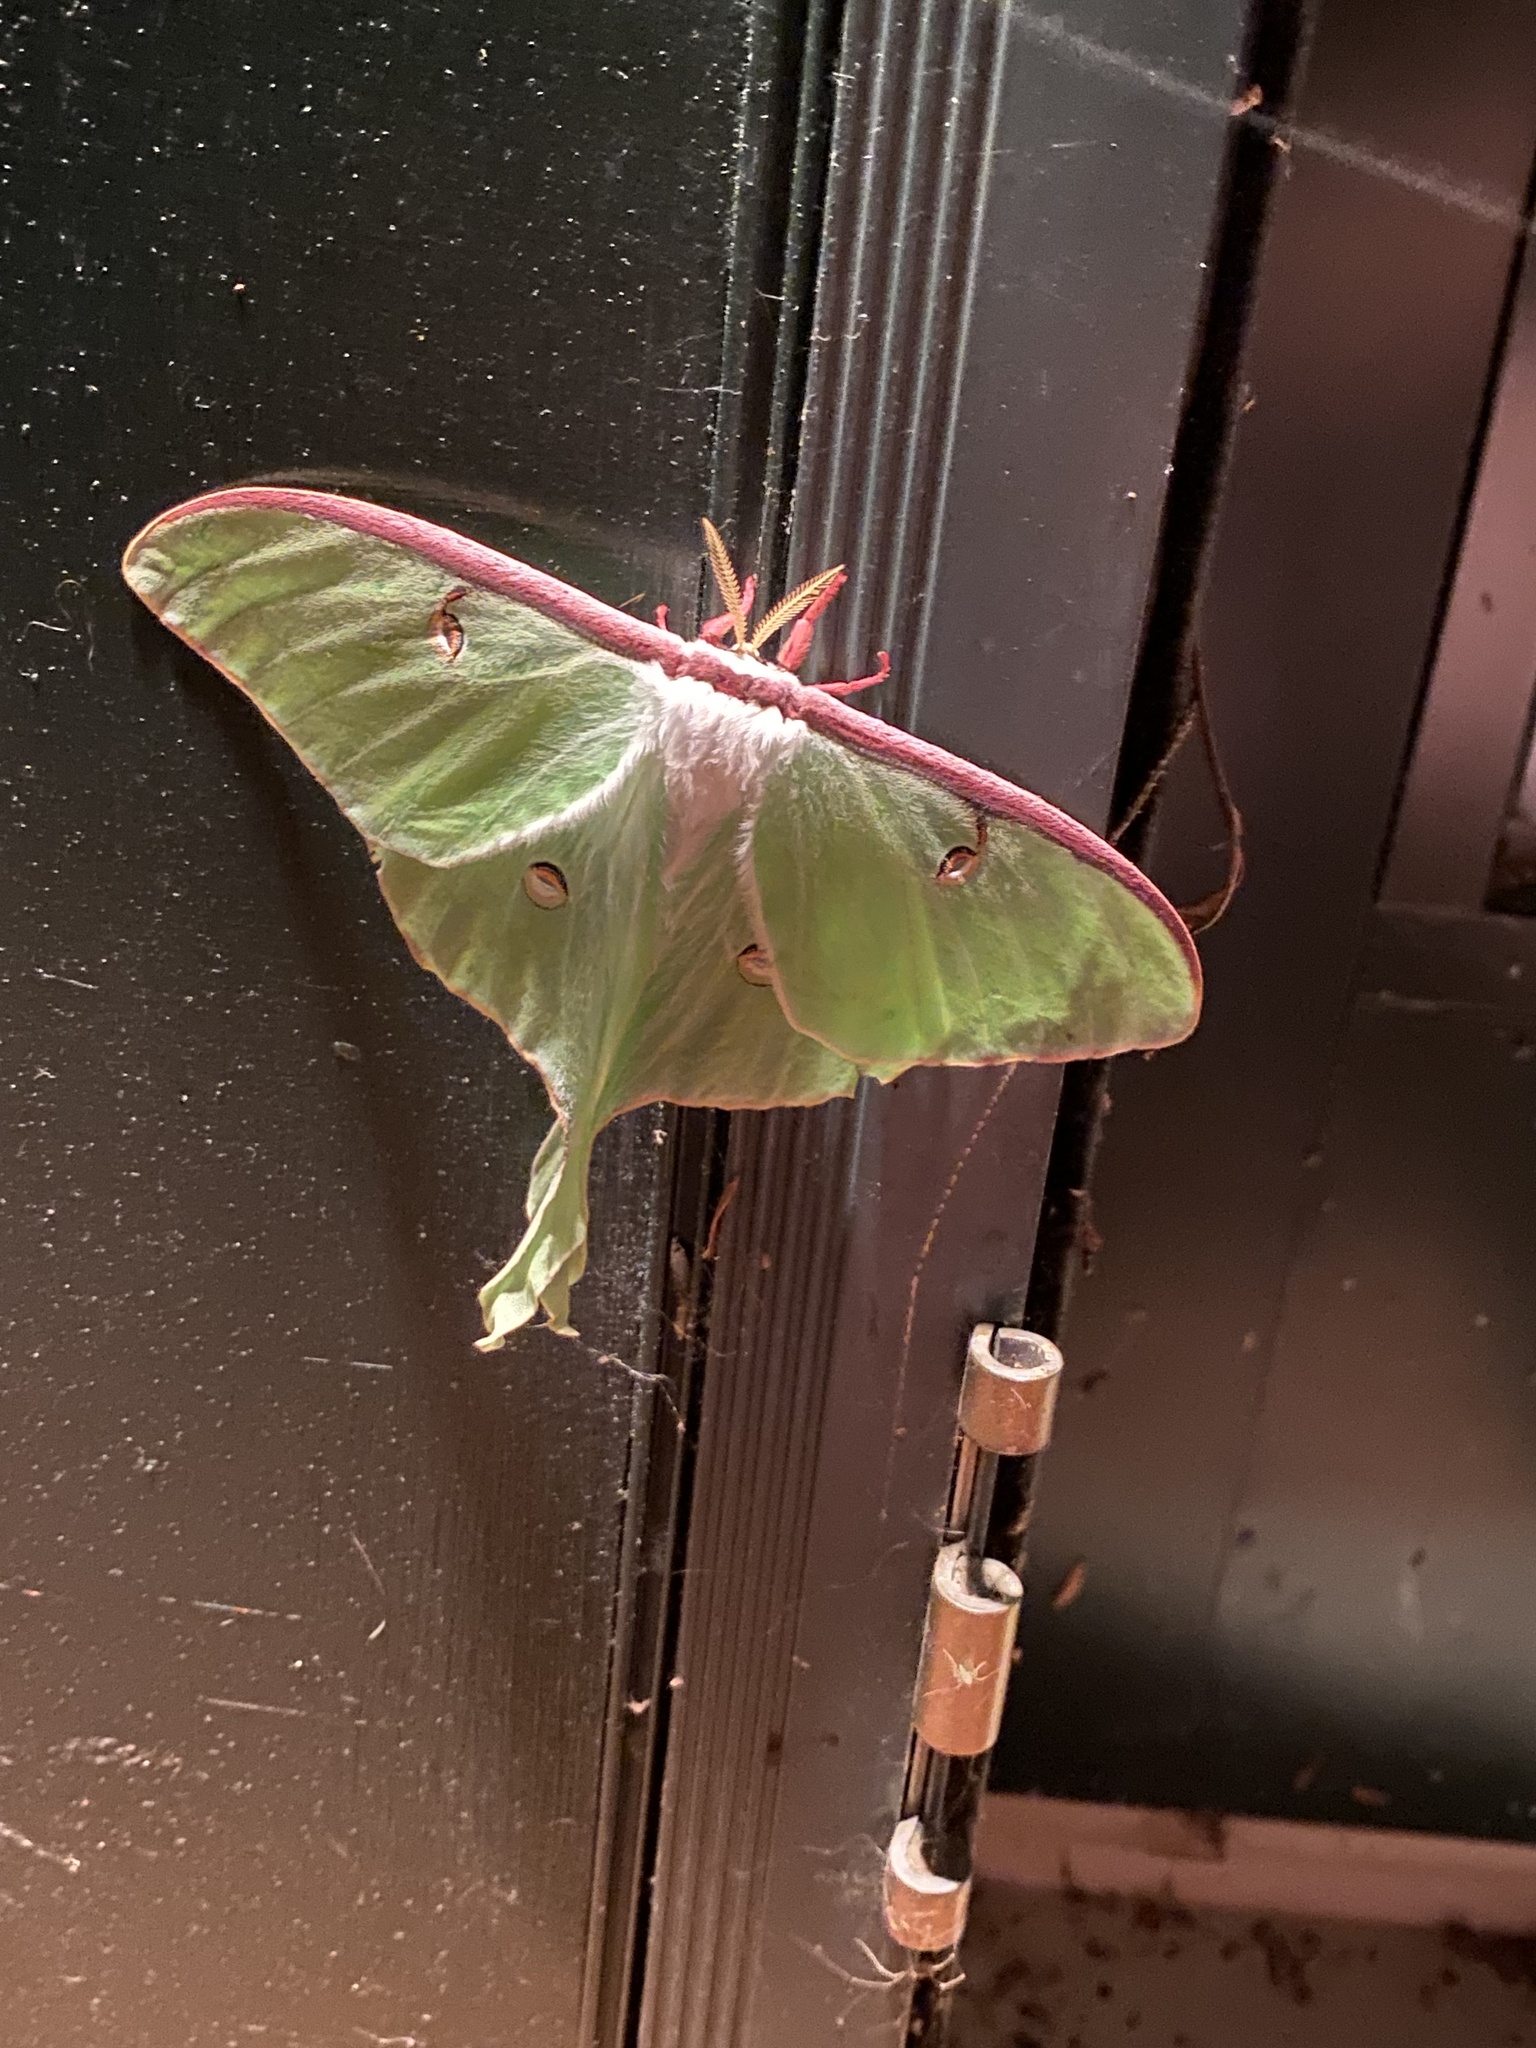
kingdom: Animalia
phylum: Arthropoda
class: Insecta
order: Lepidoptera
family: Saturniidae
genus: Actias
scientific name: Actias luna
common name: Luna moth
